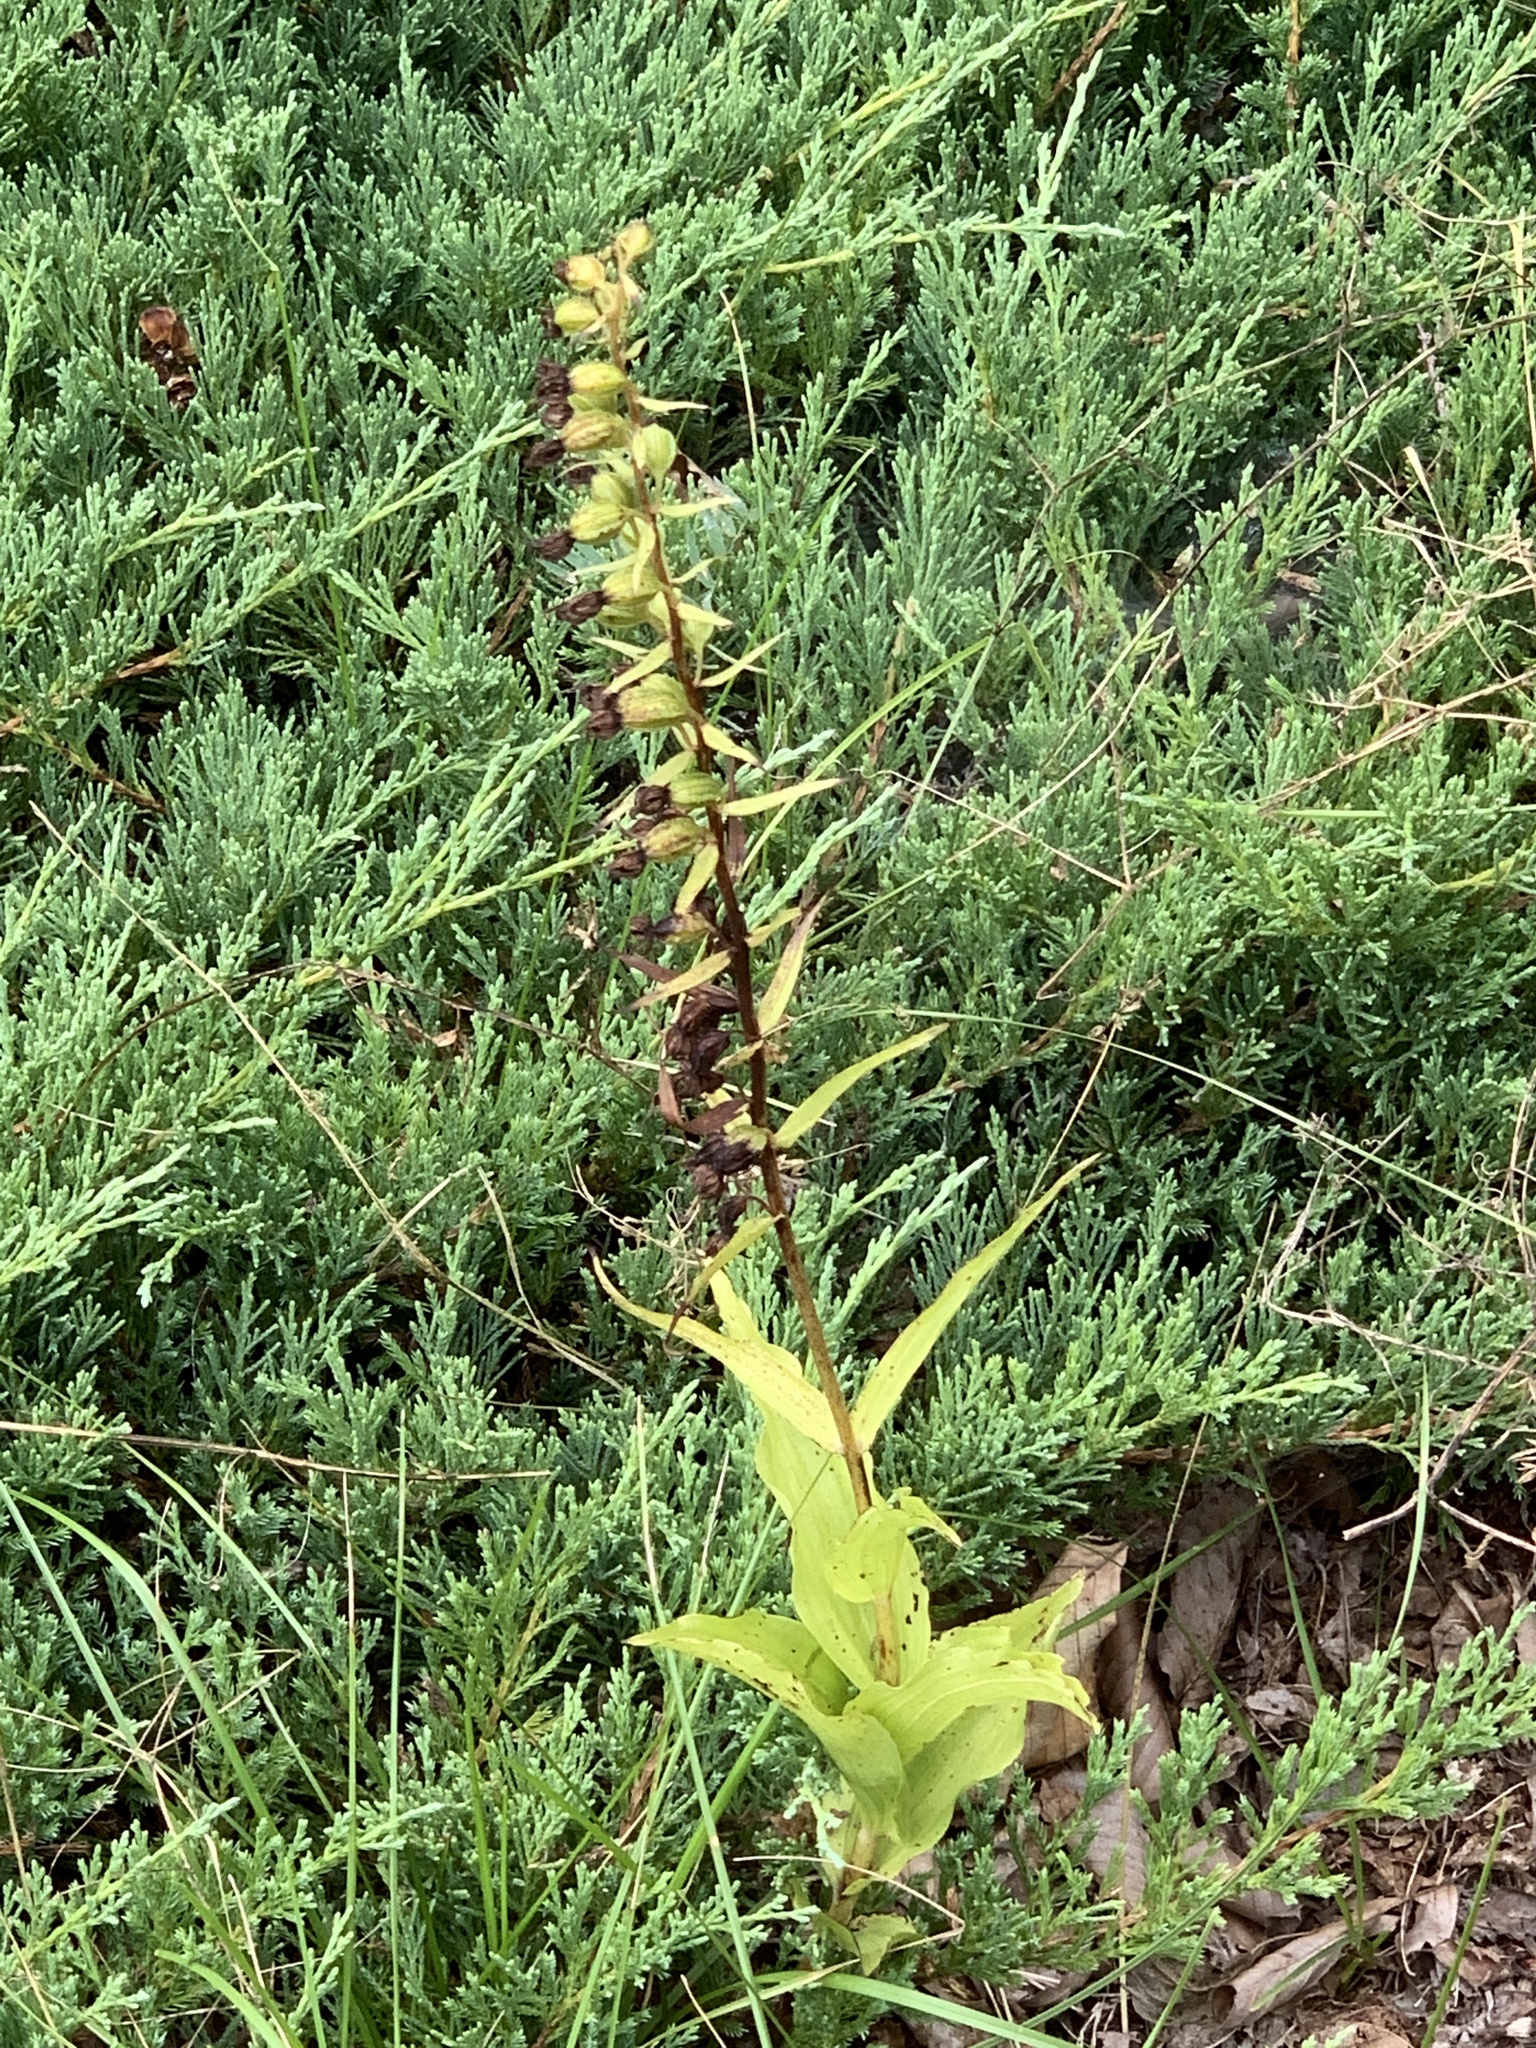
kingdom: Plantae
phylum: Tracheophyta
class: Liliopsida
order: Asparagales
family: Orchidaceae
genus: Epipactis
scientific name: Epipactis helleborine
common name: Broad-leaved helleborine
